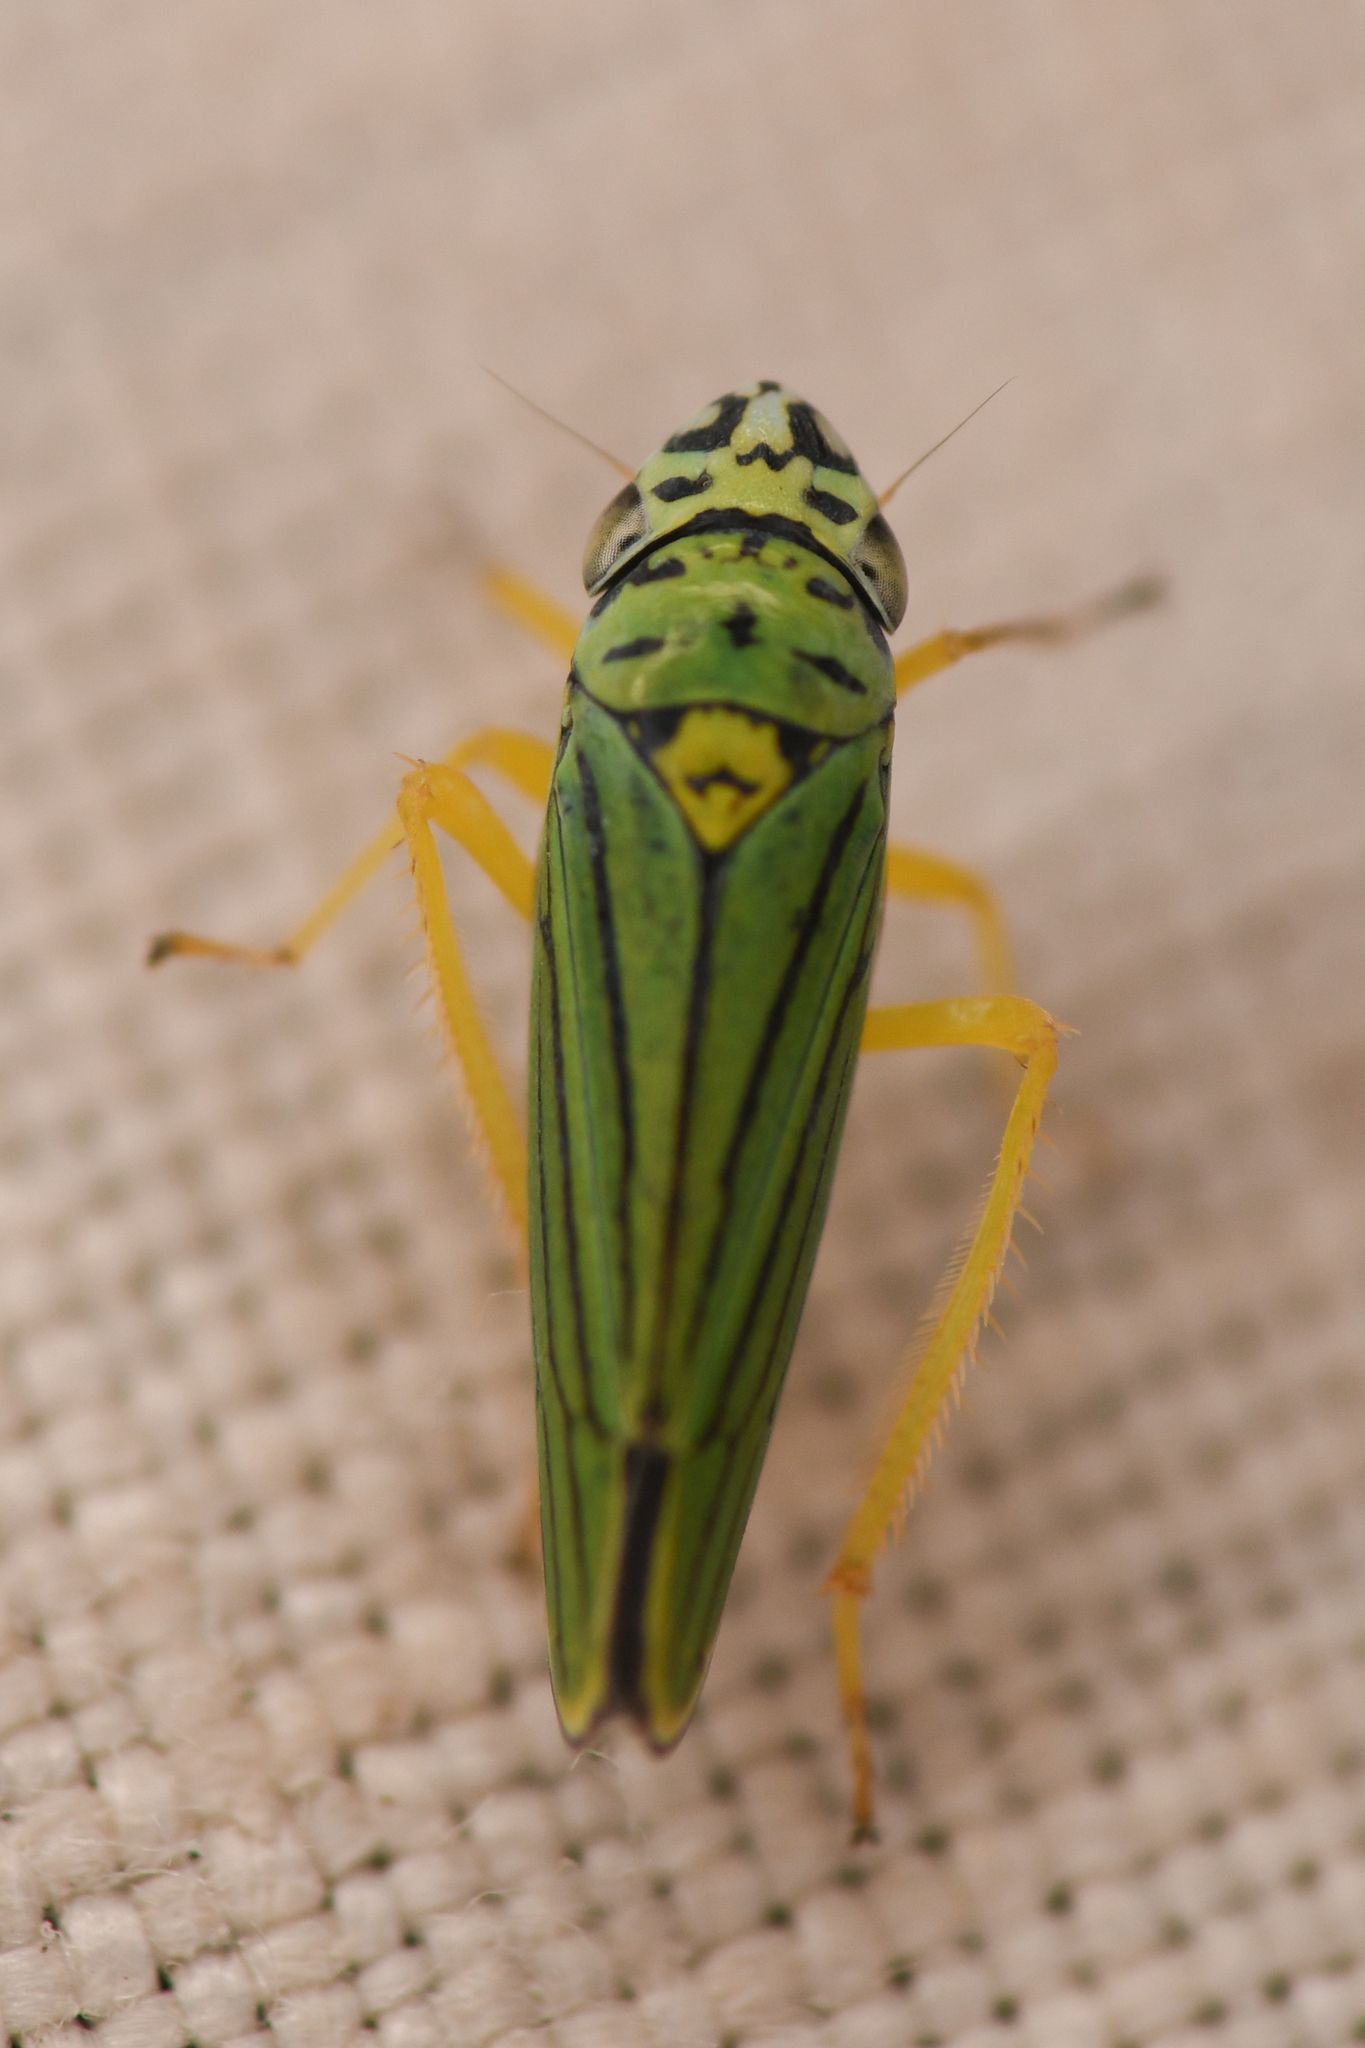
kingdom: Animalia
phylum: Arthropoda
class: Insecta
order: Hemiptera
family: Cicadellidae
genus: Graphocephala
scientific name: Graphocephala atropunctata
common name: Blue-green sharpshooter
